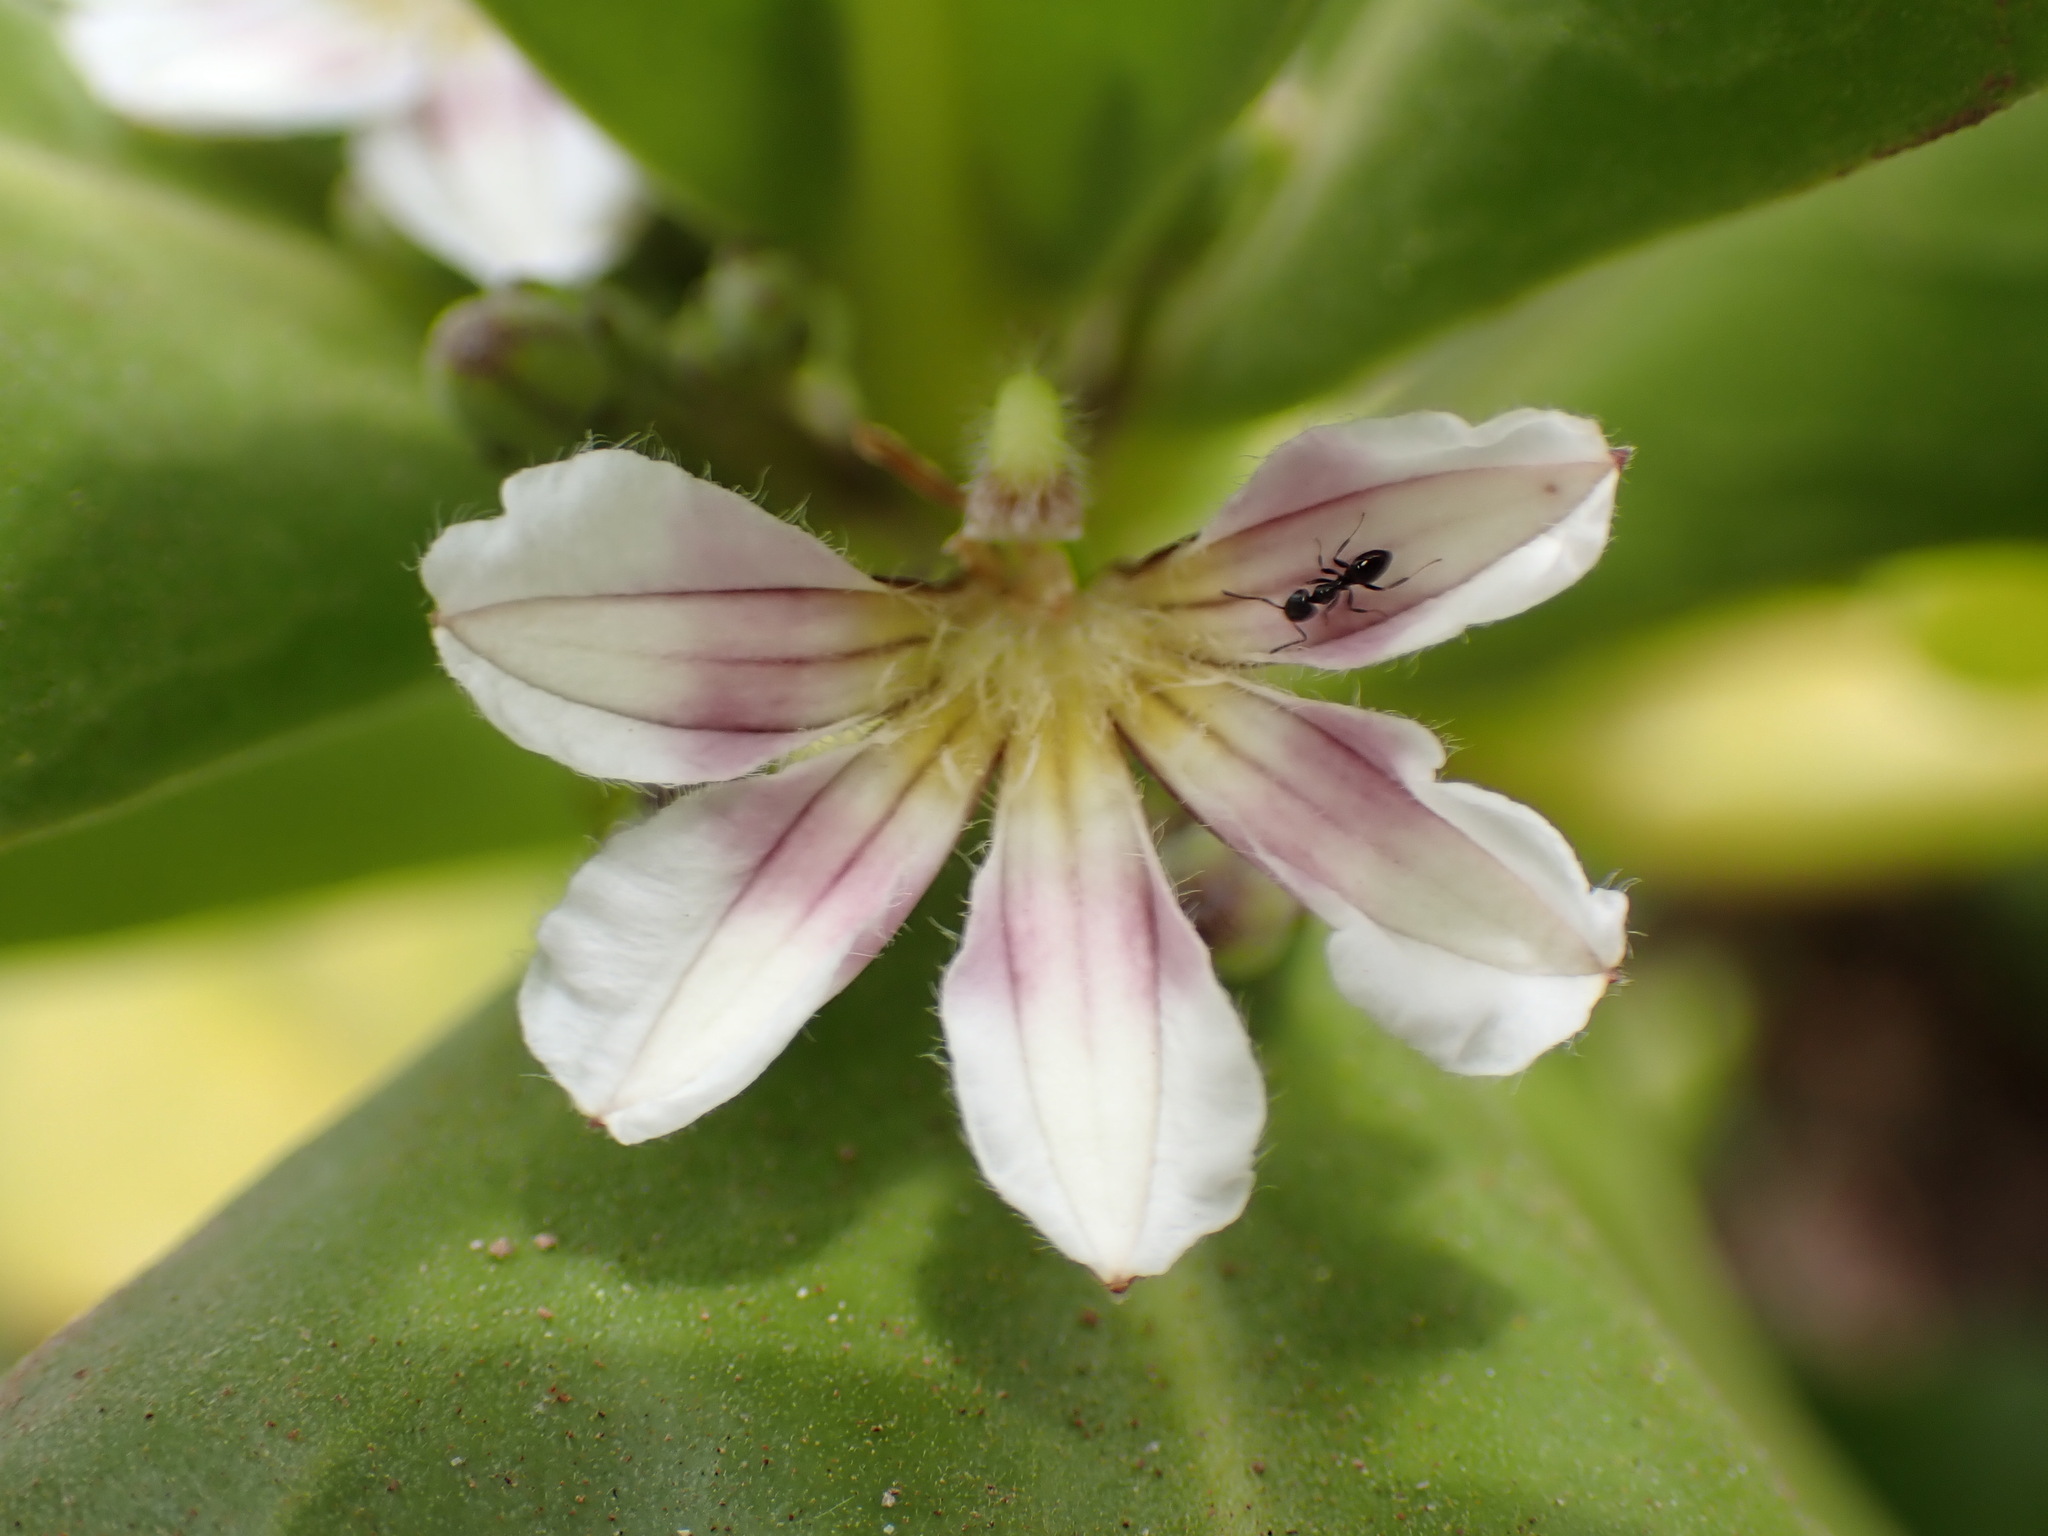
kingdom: Plantae
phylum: Tracheophyta
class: Magnoliopsida
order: Asterales
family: Goodeniaceae
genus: Scaevola
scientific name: Scaevola taccada
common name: Sea lettucetree
